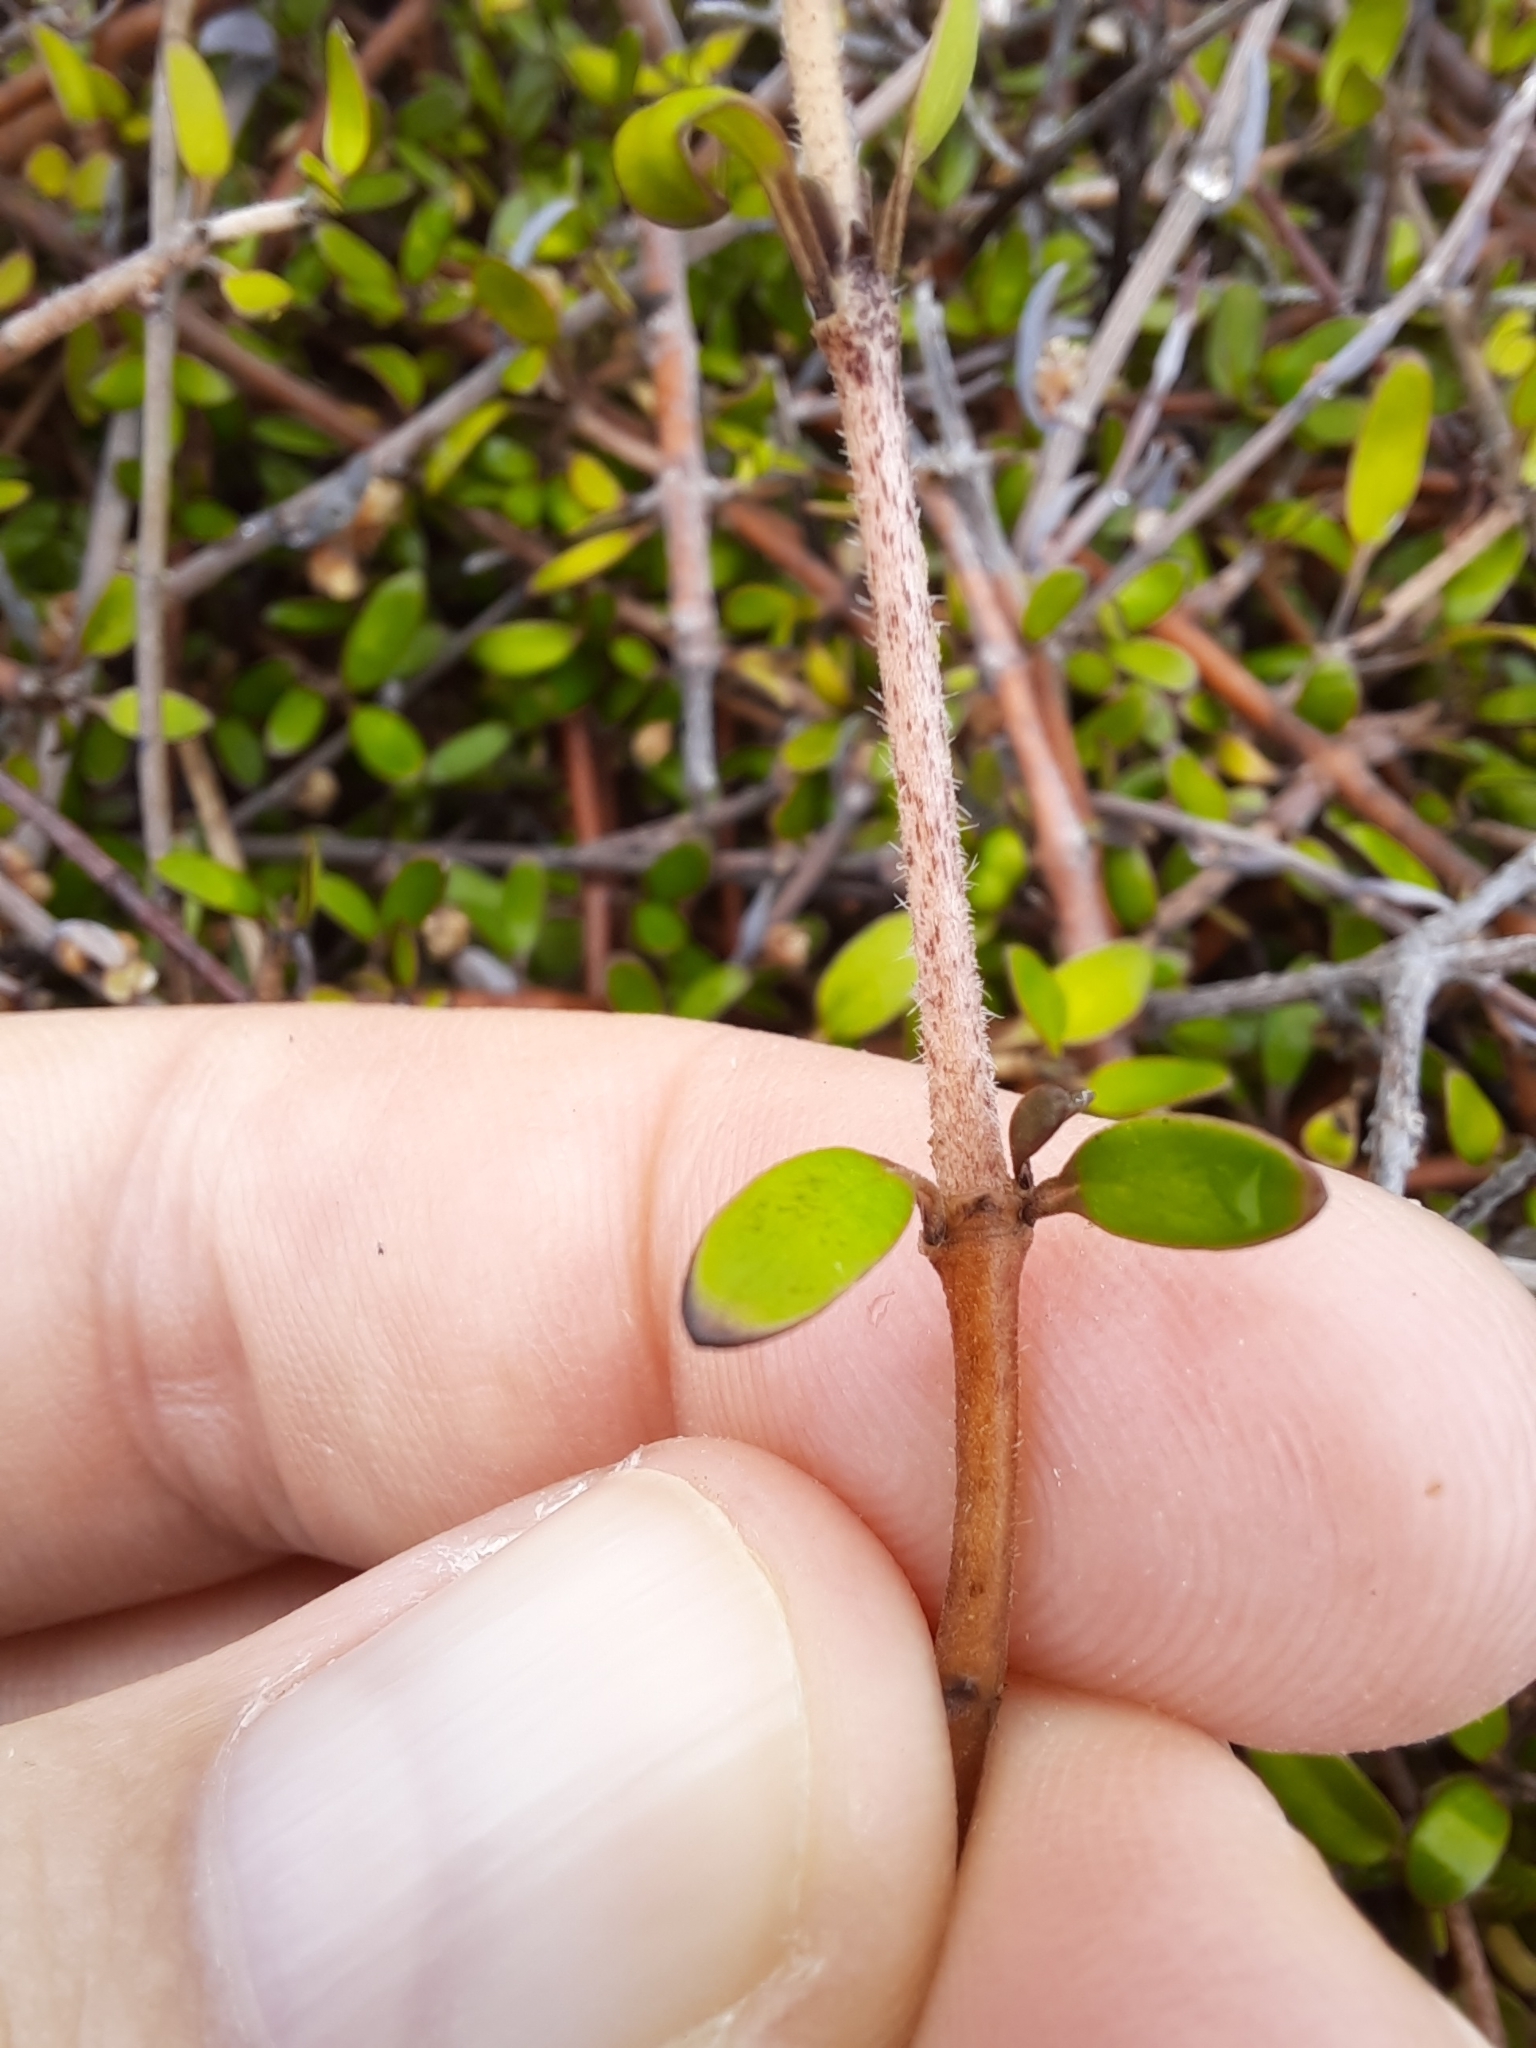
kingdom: Plantae
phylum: Tracheophyta
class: Magnoliopsida
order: Gentianales
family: Rubiaceae
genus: Coprosma
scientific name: Coprosma propinqua
